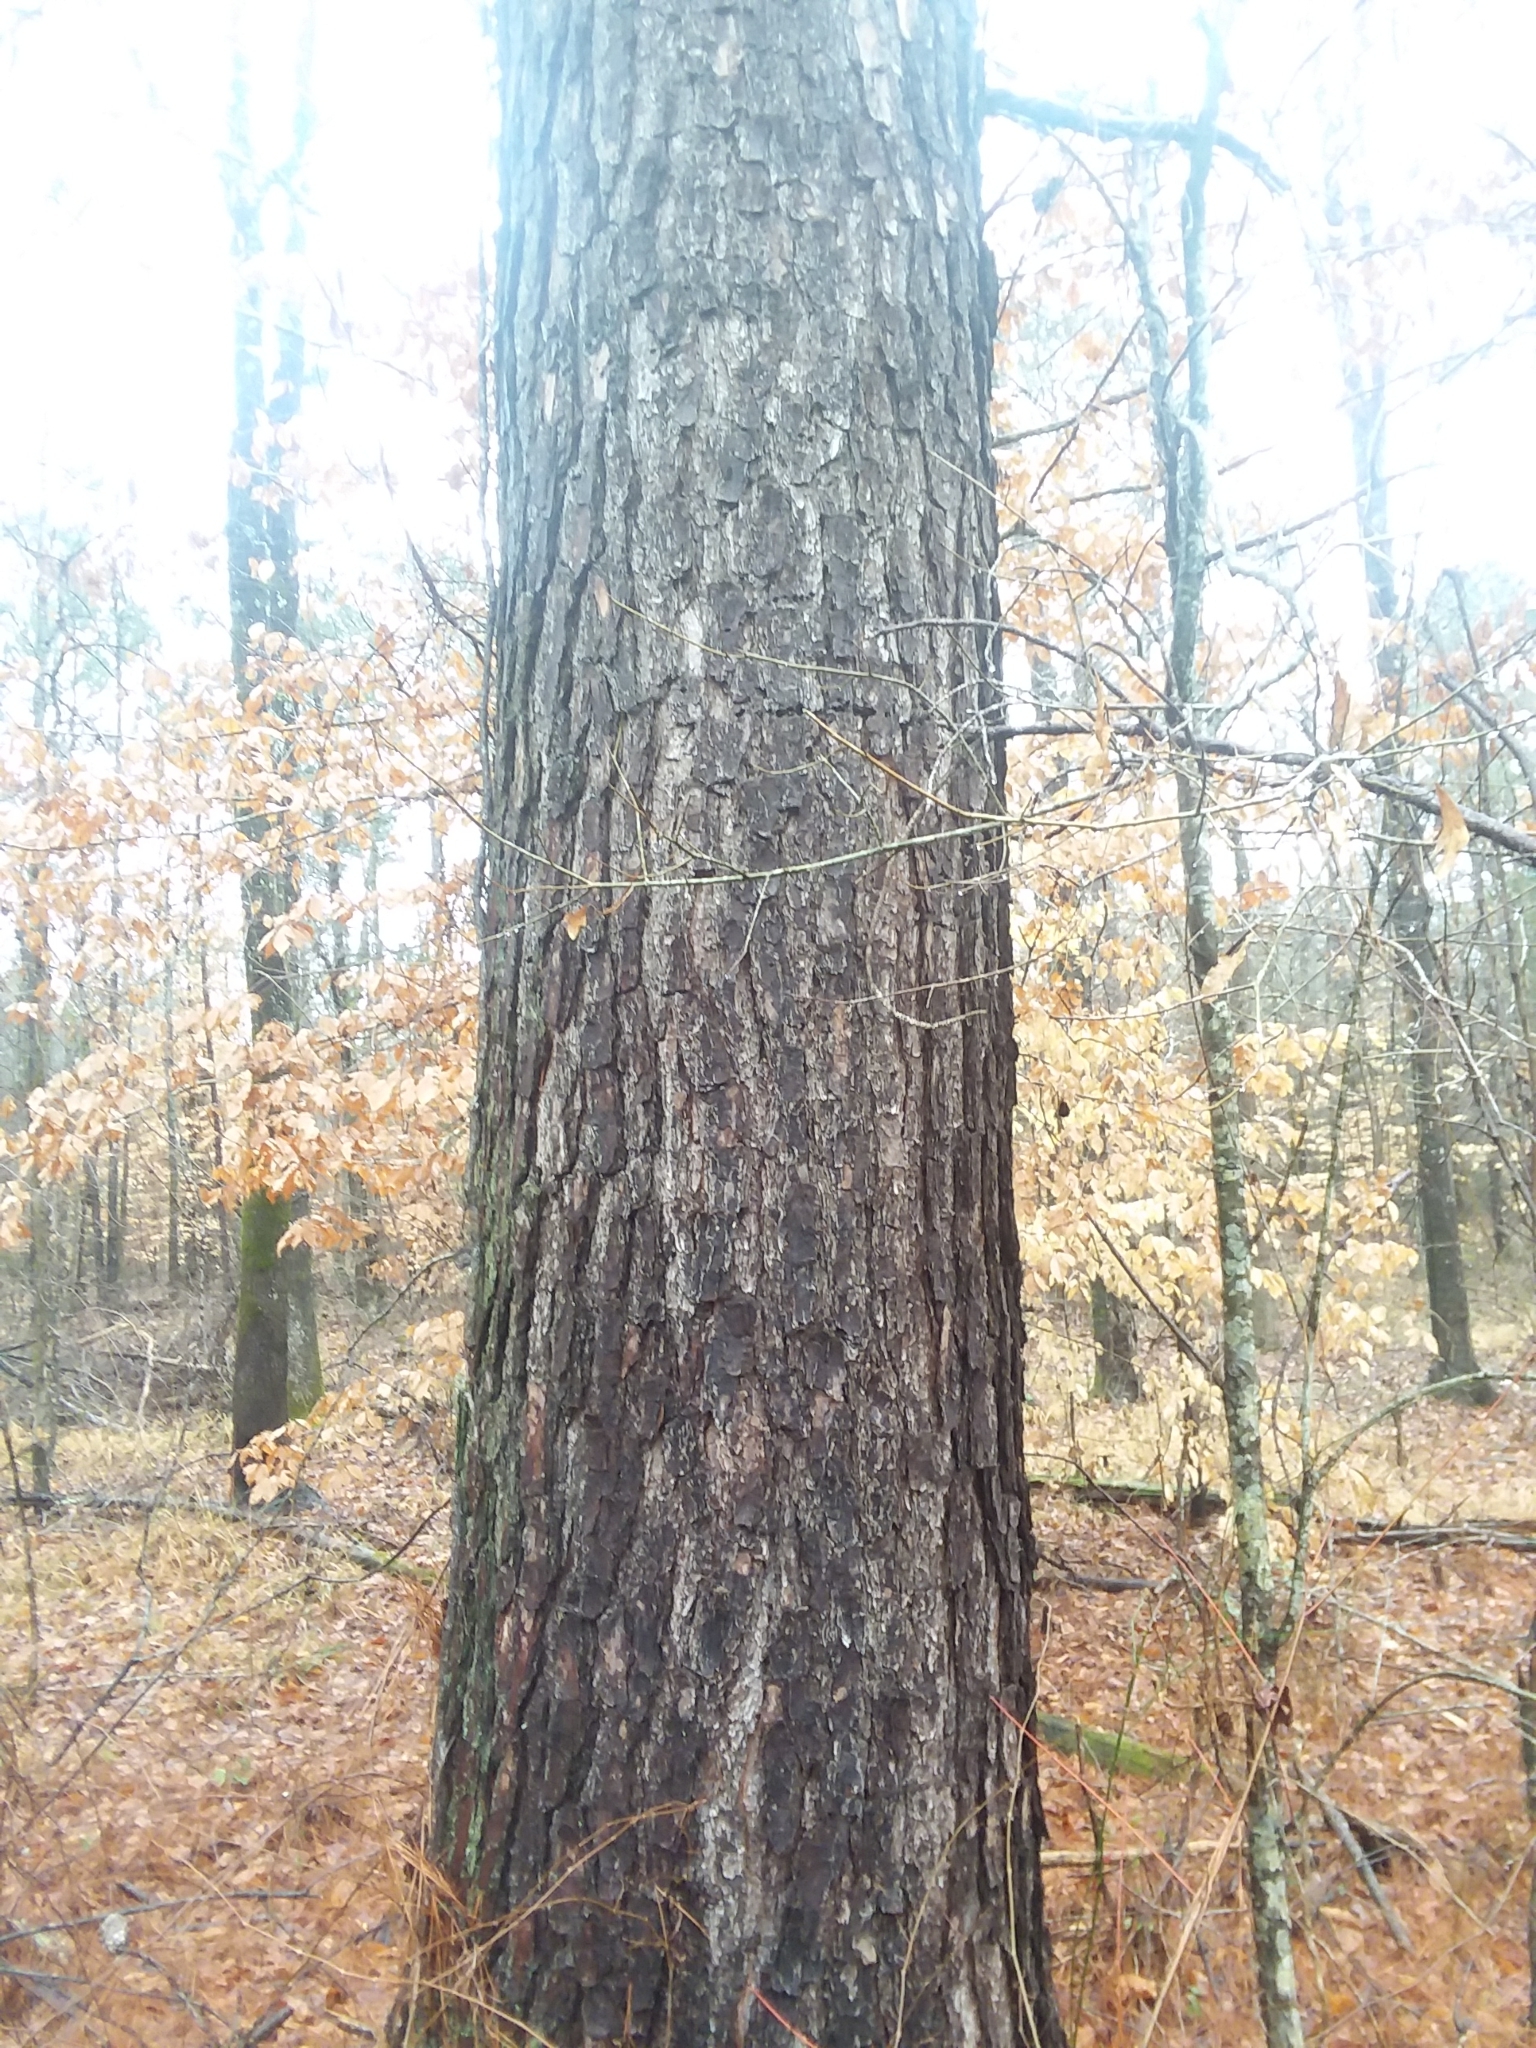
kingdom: Plantae
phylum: Tracheophyta
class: Pinopsida
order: Pinales
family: Pinaceae
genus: Pinus
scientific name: Pinus taeda
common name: Loblolly pine
